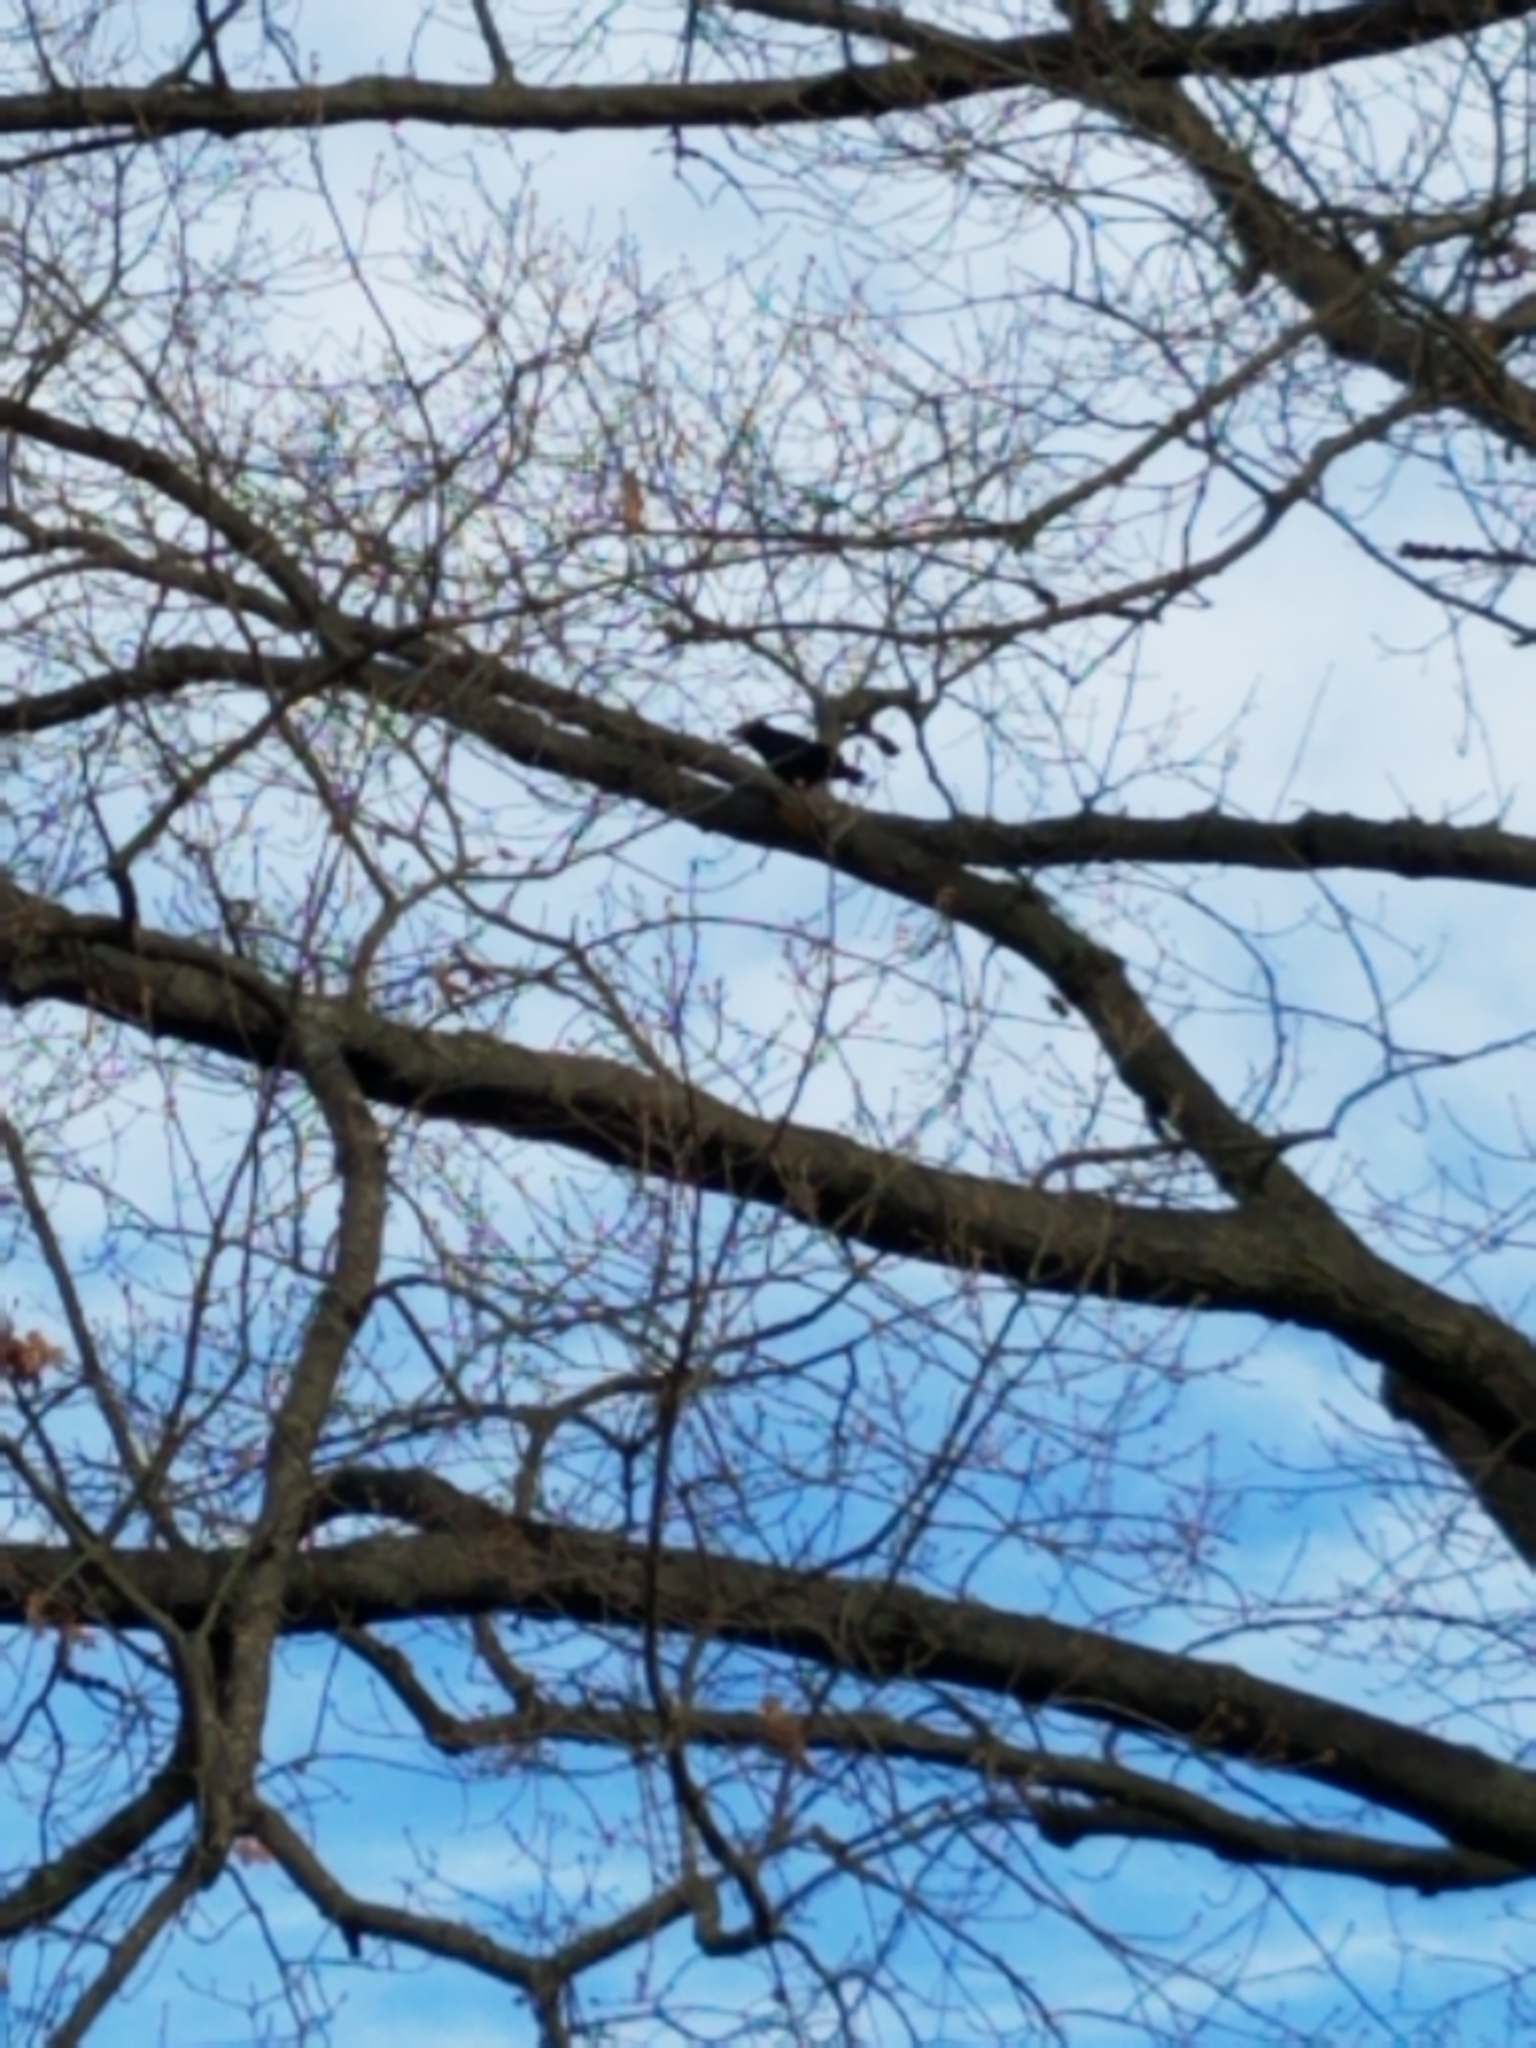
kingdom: Animalia
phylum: Chordata
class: Aves
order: Passeriformes
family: Corvidae
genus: Corvus
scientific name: Corvus ossifragus
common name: Fish crow
